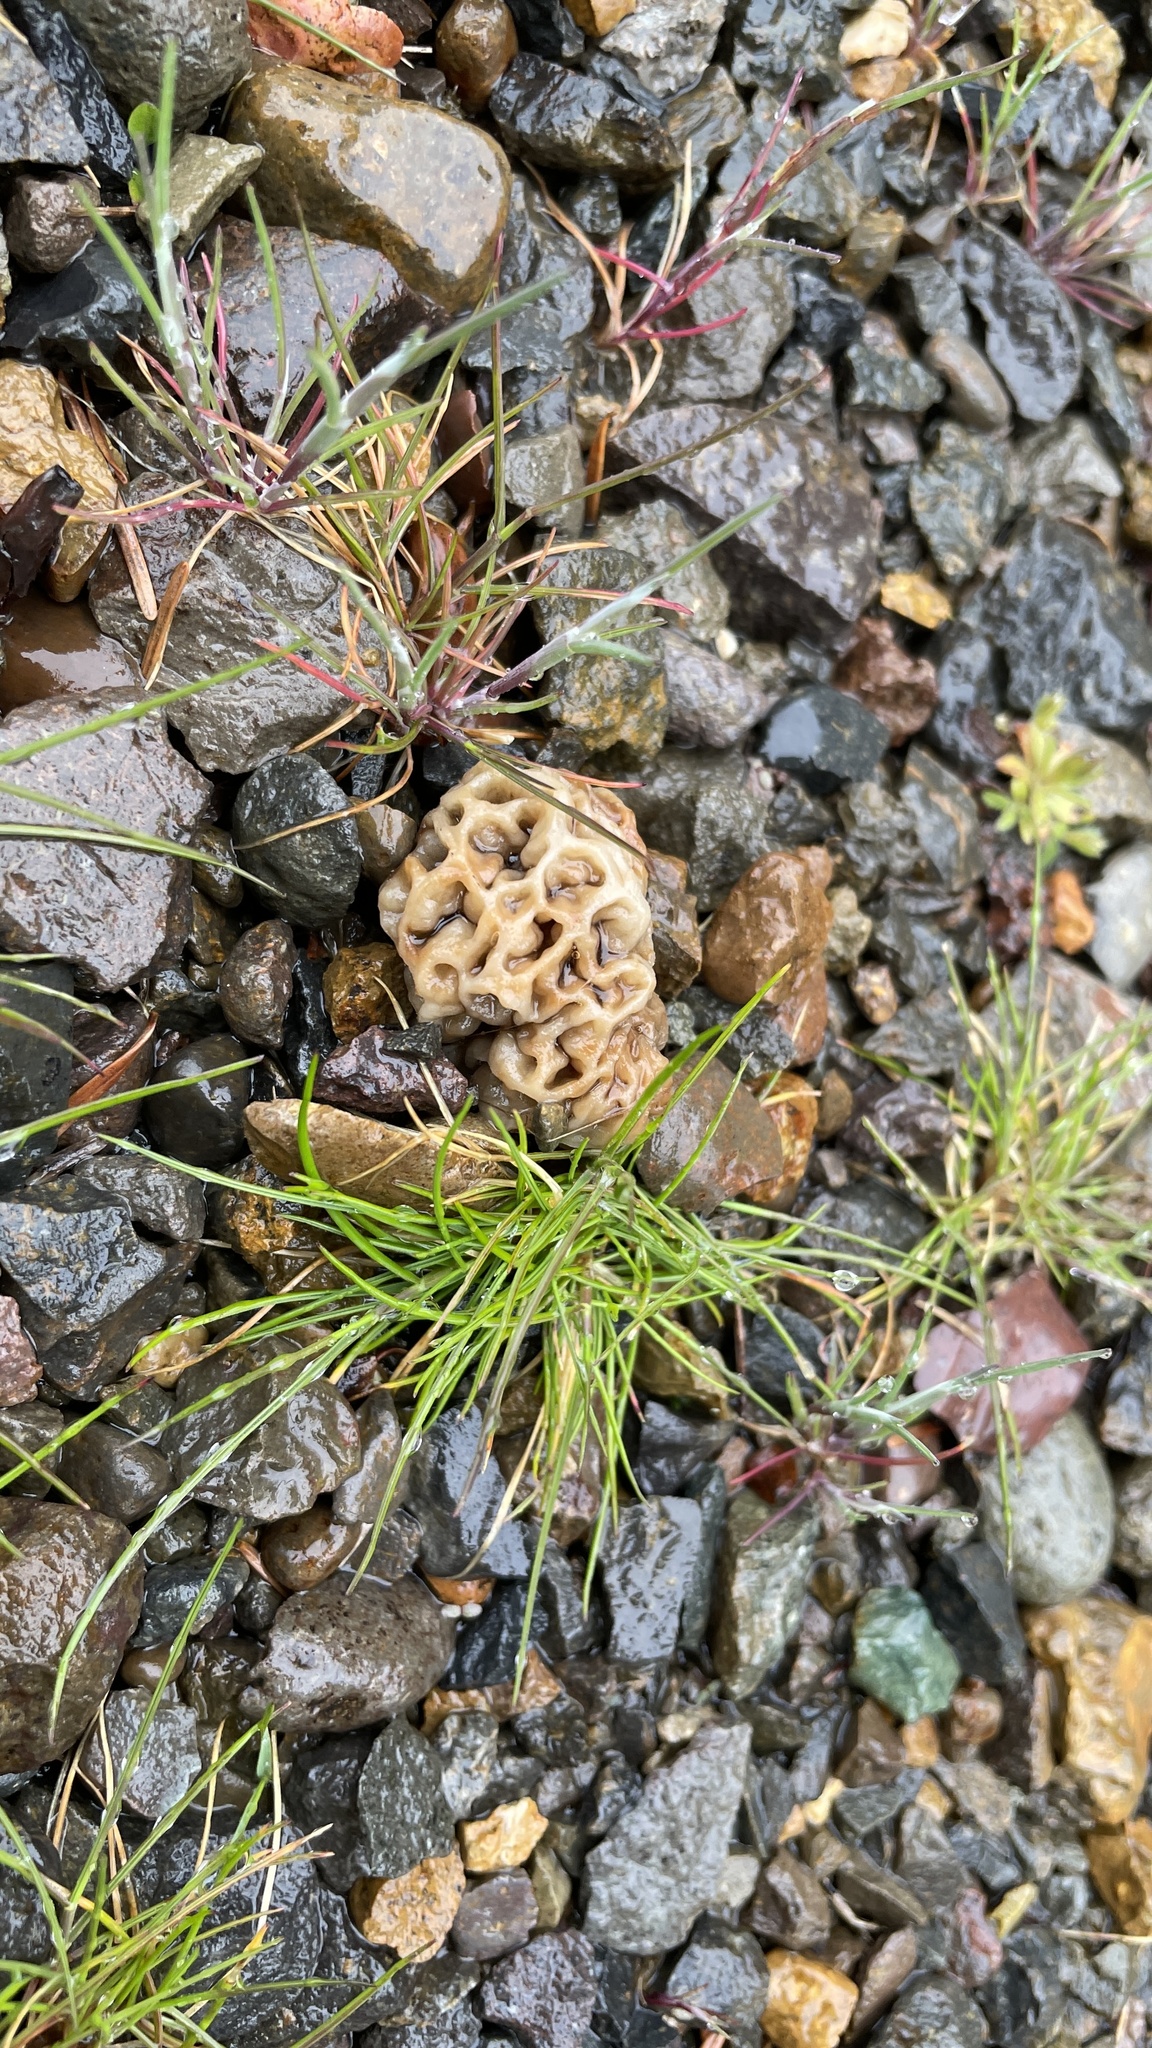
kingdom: Fungi
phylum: Ascomycota
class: Pezizomycetes
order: Pezizales
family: Morchellaceae
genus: Morchella
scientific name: Morchella americana
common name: White morel
